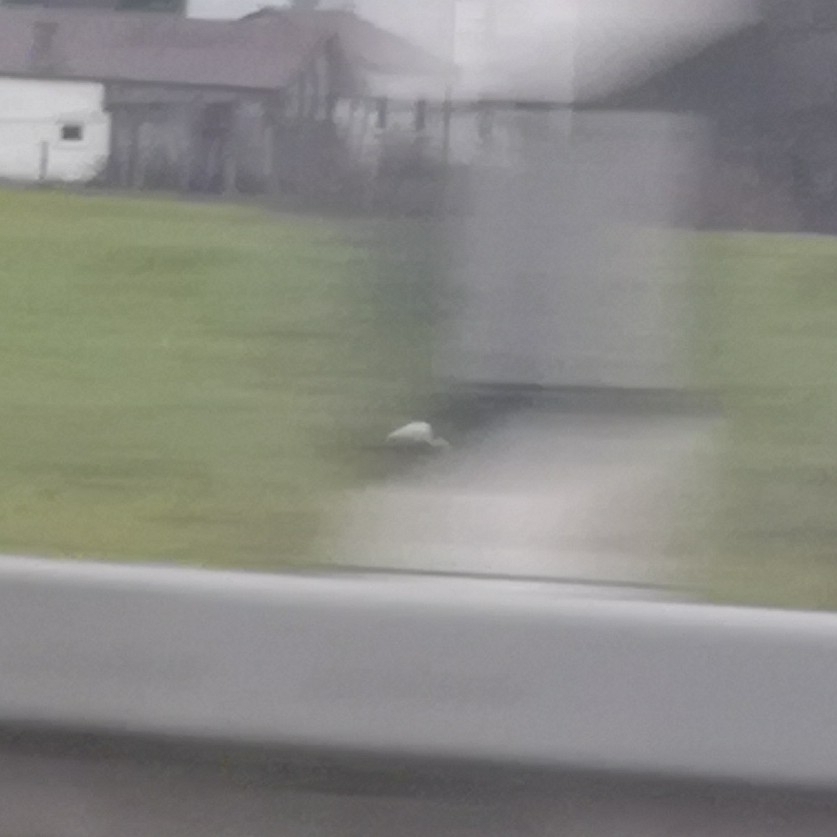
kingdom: Animalia
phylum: Chordata
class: Aves
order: Pelecaniformes
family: Ardeidae
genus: Ardea
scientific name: Ardea alba
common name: Great egret
